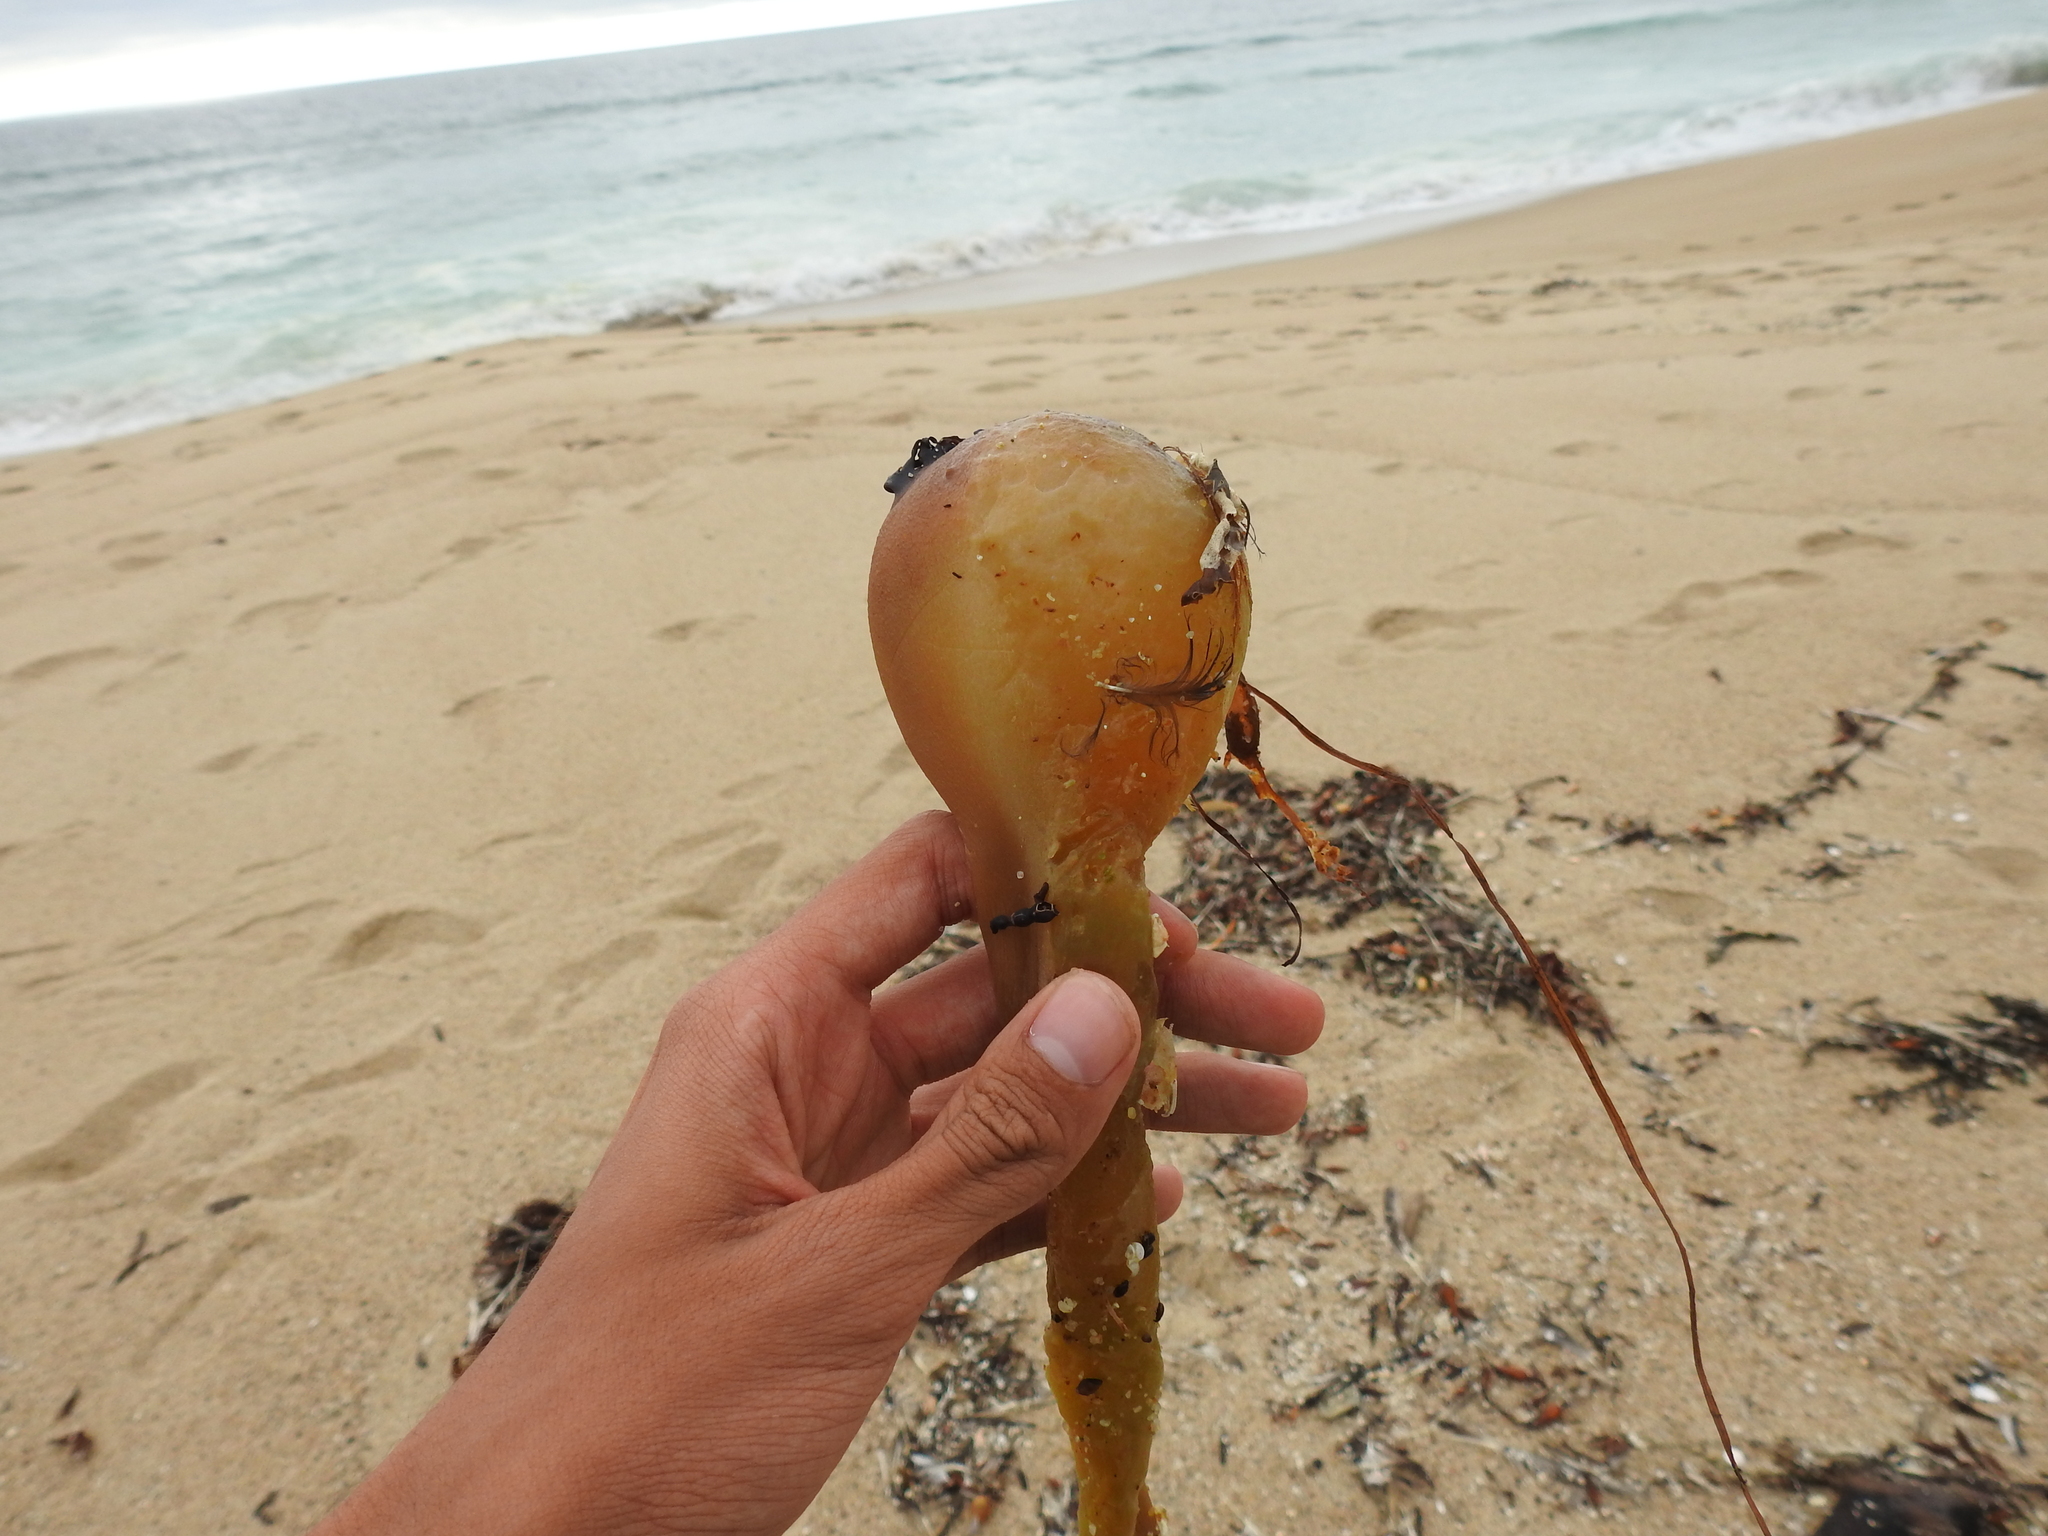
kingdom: Chromista
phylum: Ochrophyta
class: Phaeophyceae
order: Laminariales
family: Laminariaceae
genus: Nereocystis
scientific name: Nereocystis luetkeana
